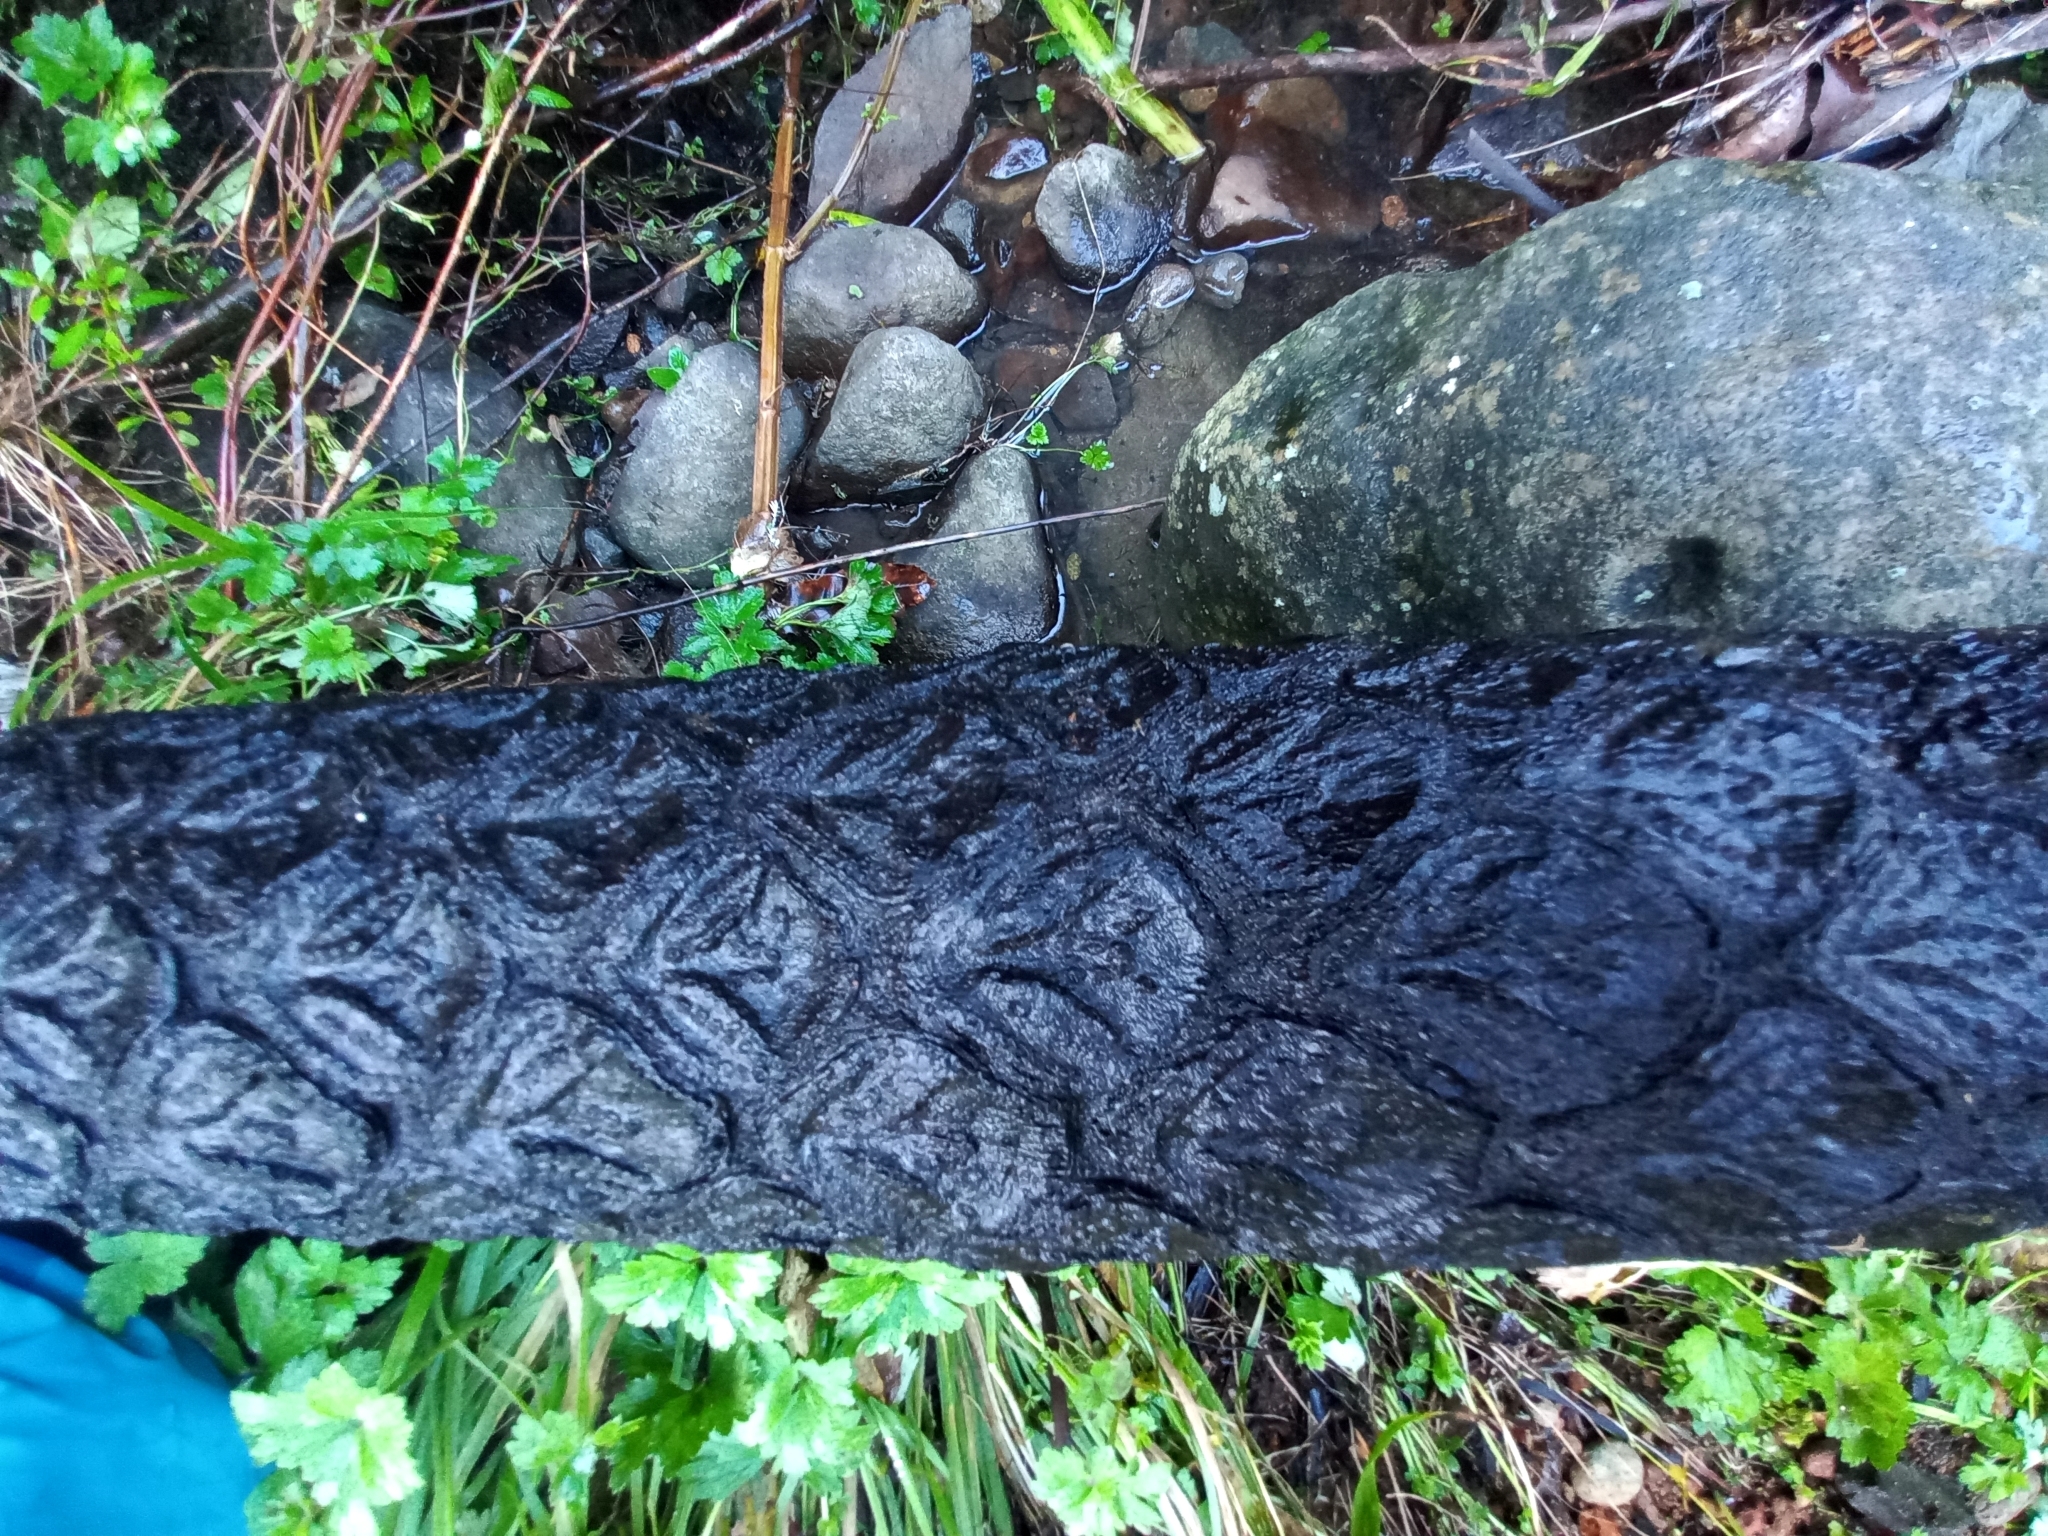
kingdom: Plantae
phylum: Tracheophyta
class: Polypodiopsida
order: Cyatheales
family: Cyatheaceae
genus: Sphaeropteris
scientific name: Sphaeropteris medullaris
